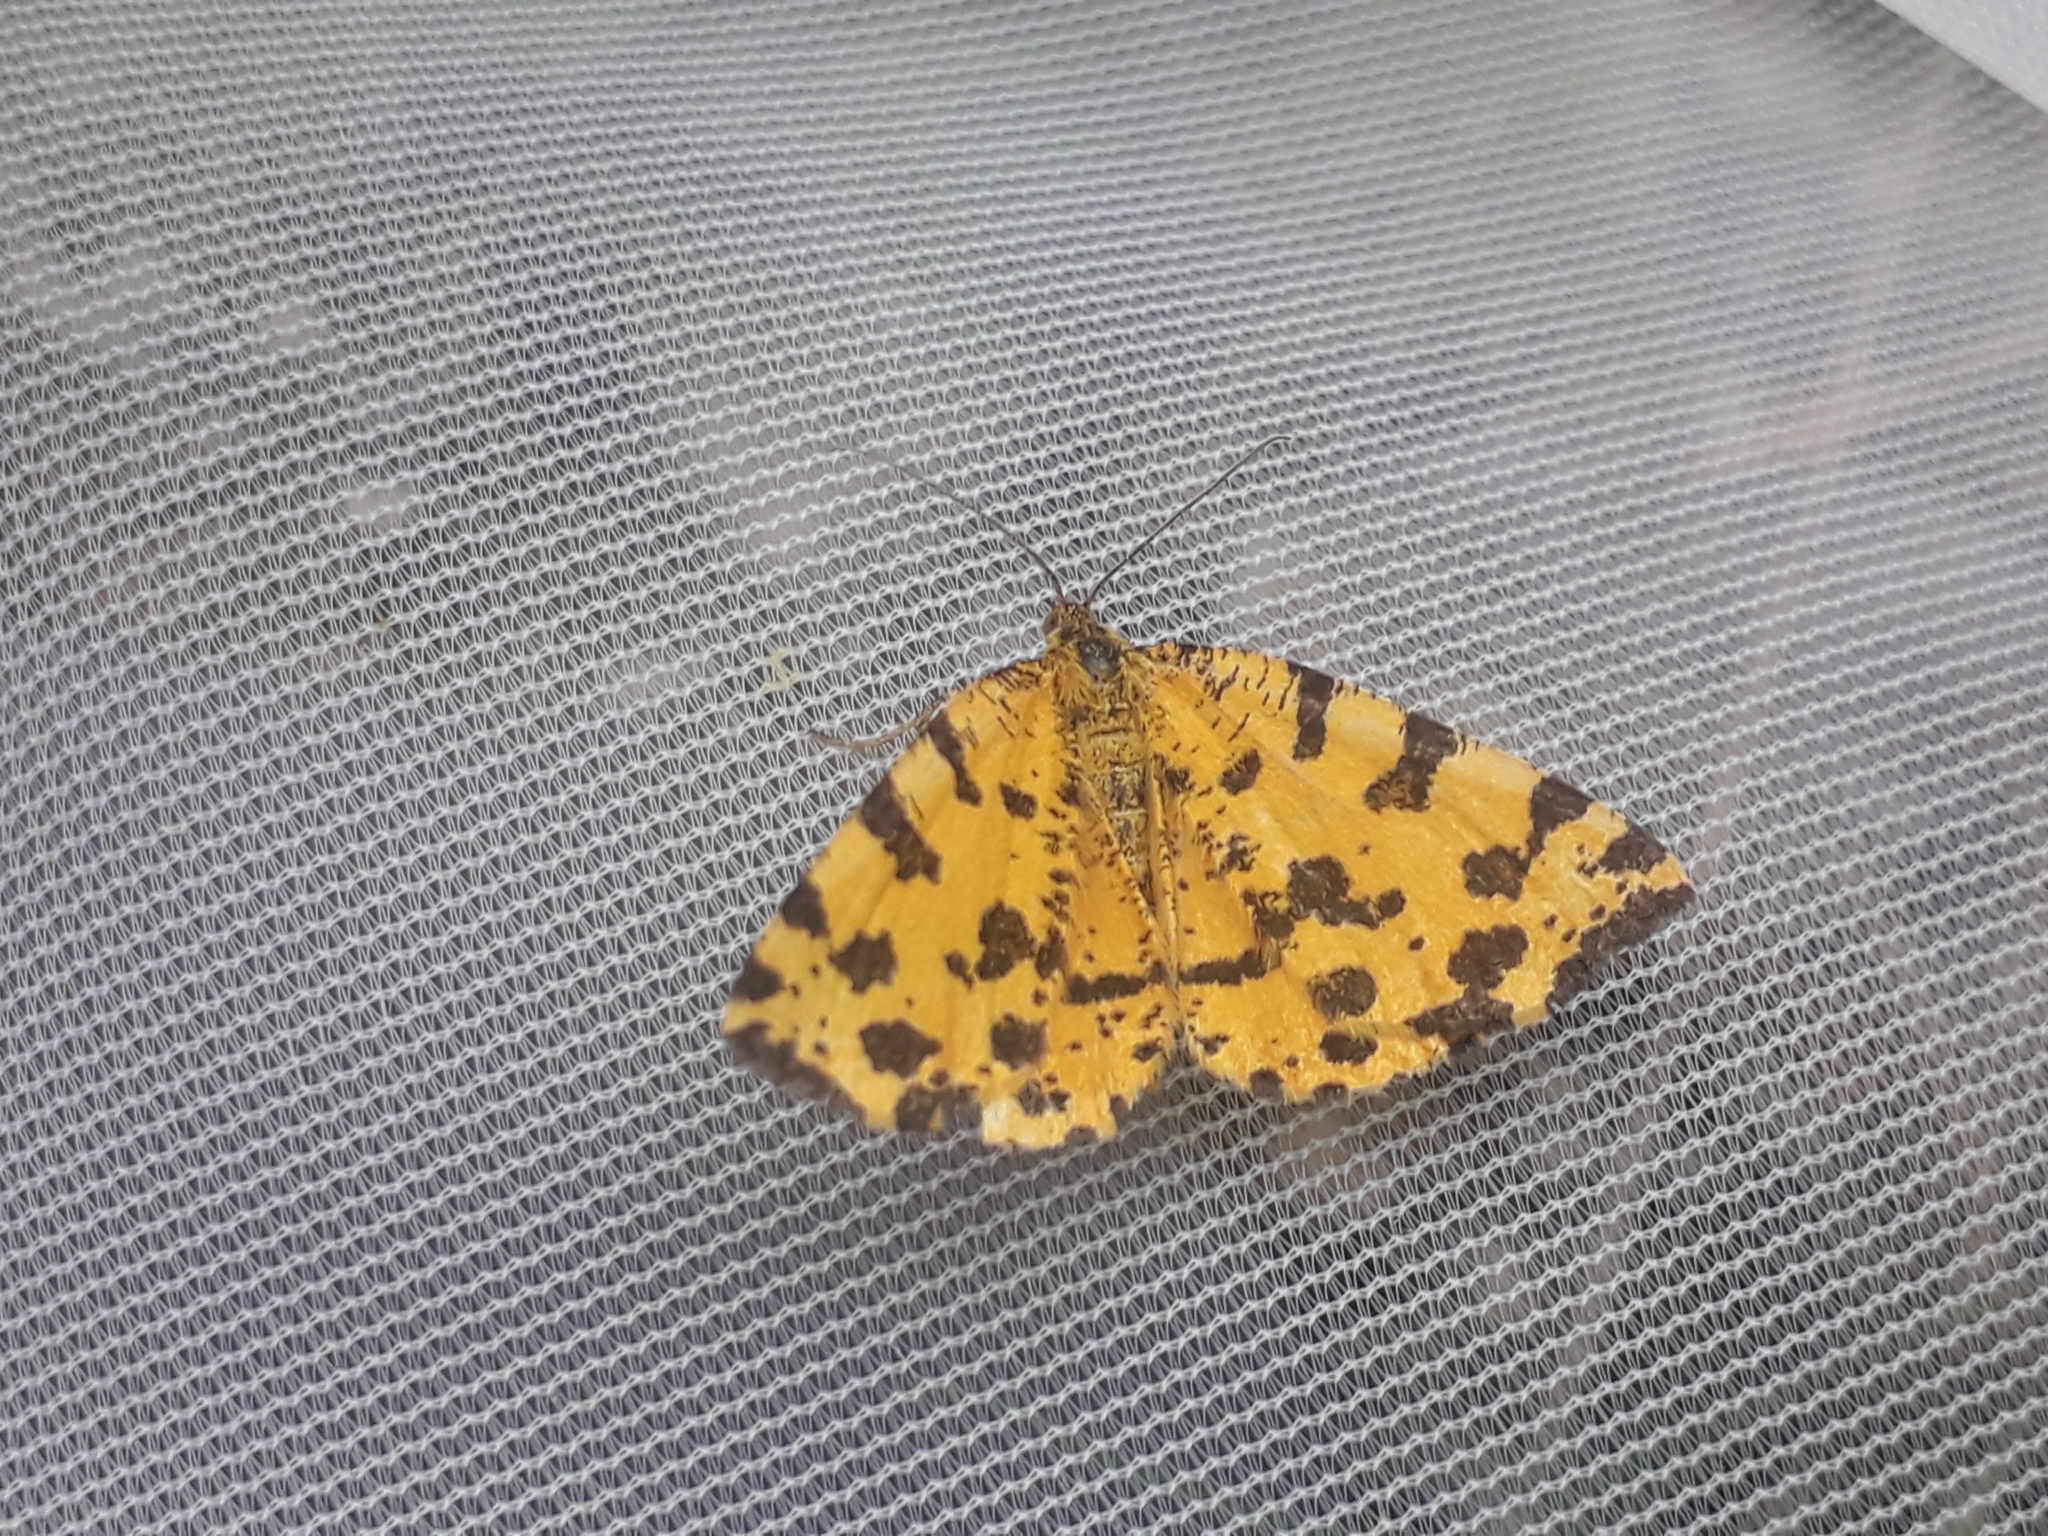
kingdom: Animalia
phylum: Arthropoda
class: Insecta
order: Lepidoptera
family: Geometridae
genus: Pseudopanthera
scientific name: Pseudopanthera macularia
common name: Speckled yellow
